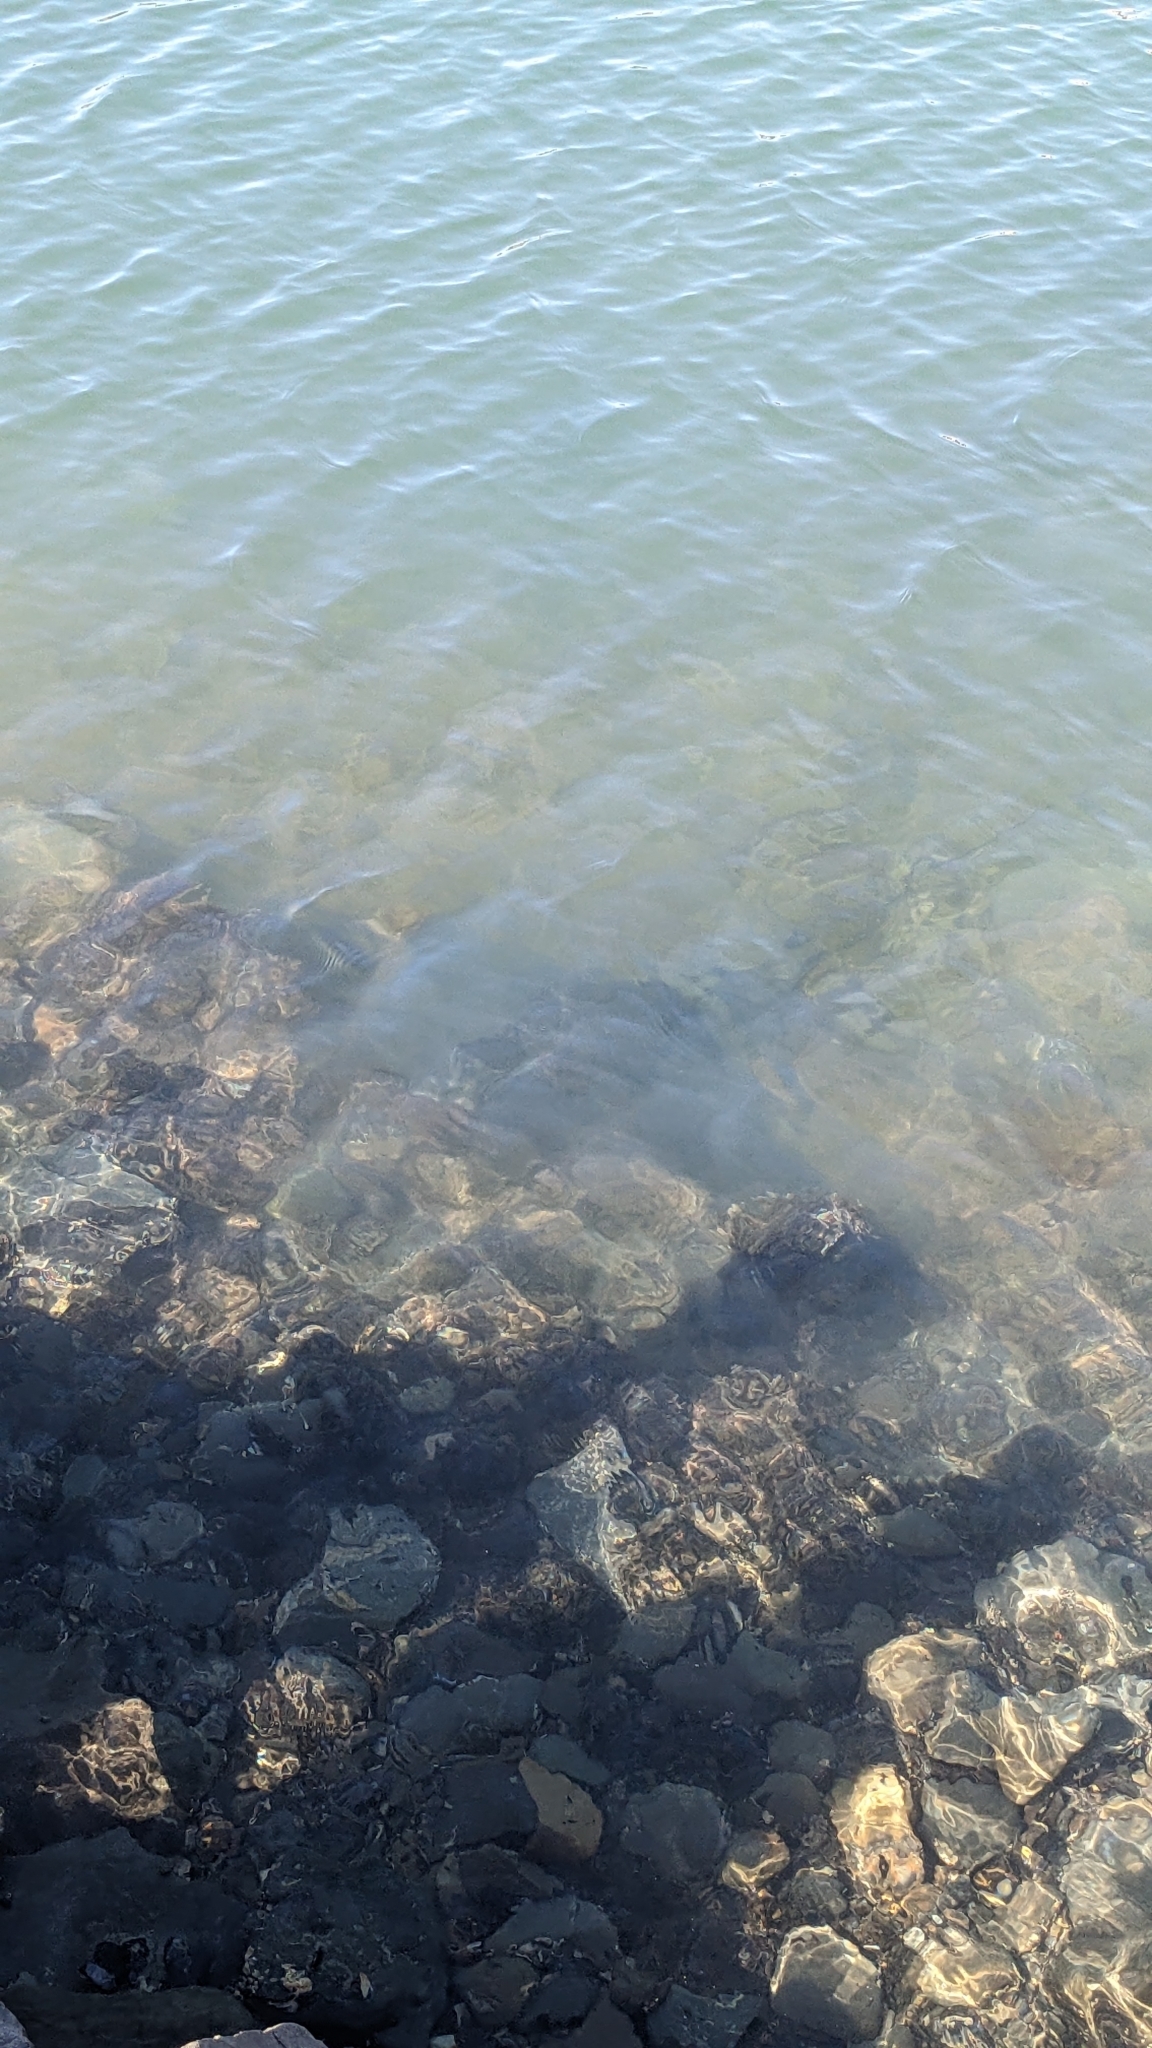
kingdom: Animalia
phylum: Chordata
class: Elasmobranchii
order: Myliobatiformes
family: Myliobatidae
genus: Myliobatis
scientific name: Myliobatis tenuicaudatus
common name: Eagle ray
